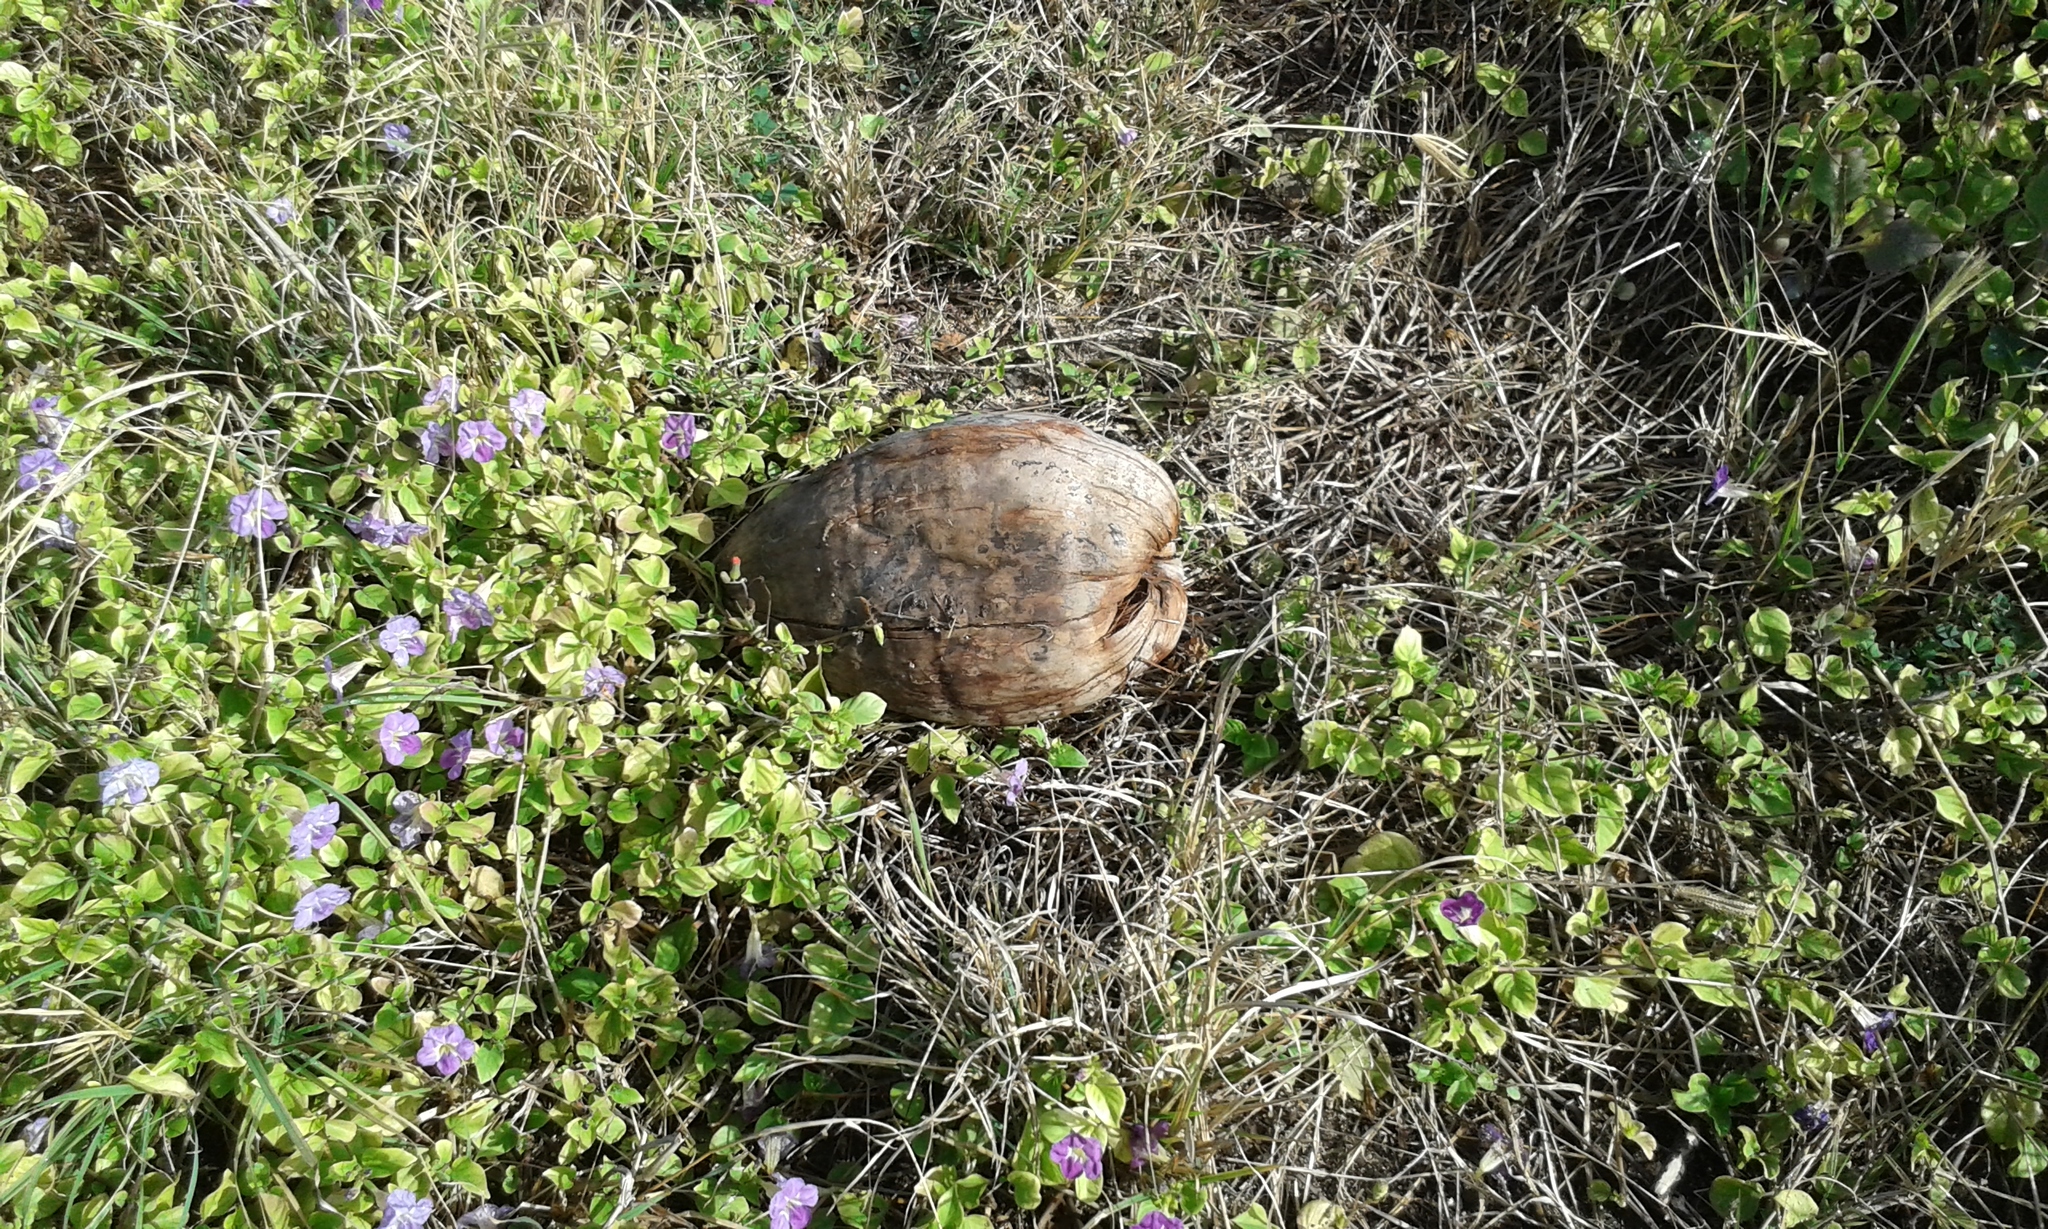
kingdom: Plantae
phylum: Tracheophyta
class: Liliopsida
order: Arecales
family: Arecaceae
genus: Cocos
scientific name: Cocos nucifera
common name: Coconut palm
